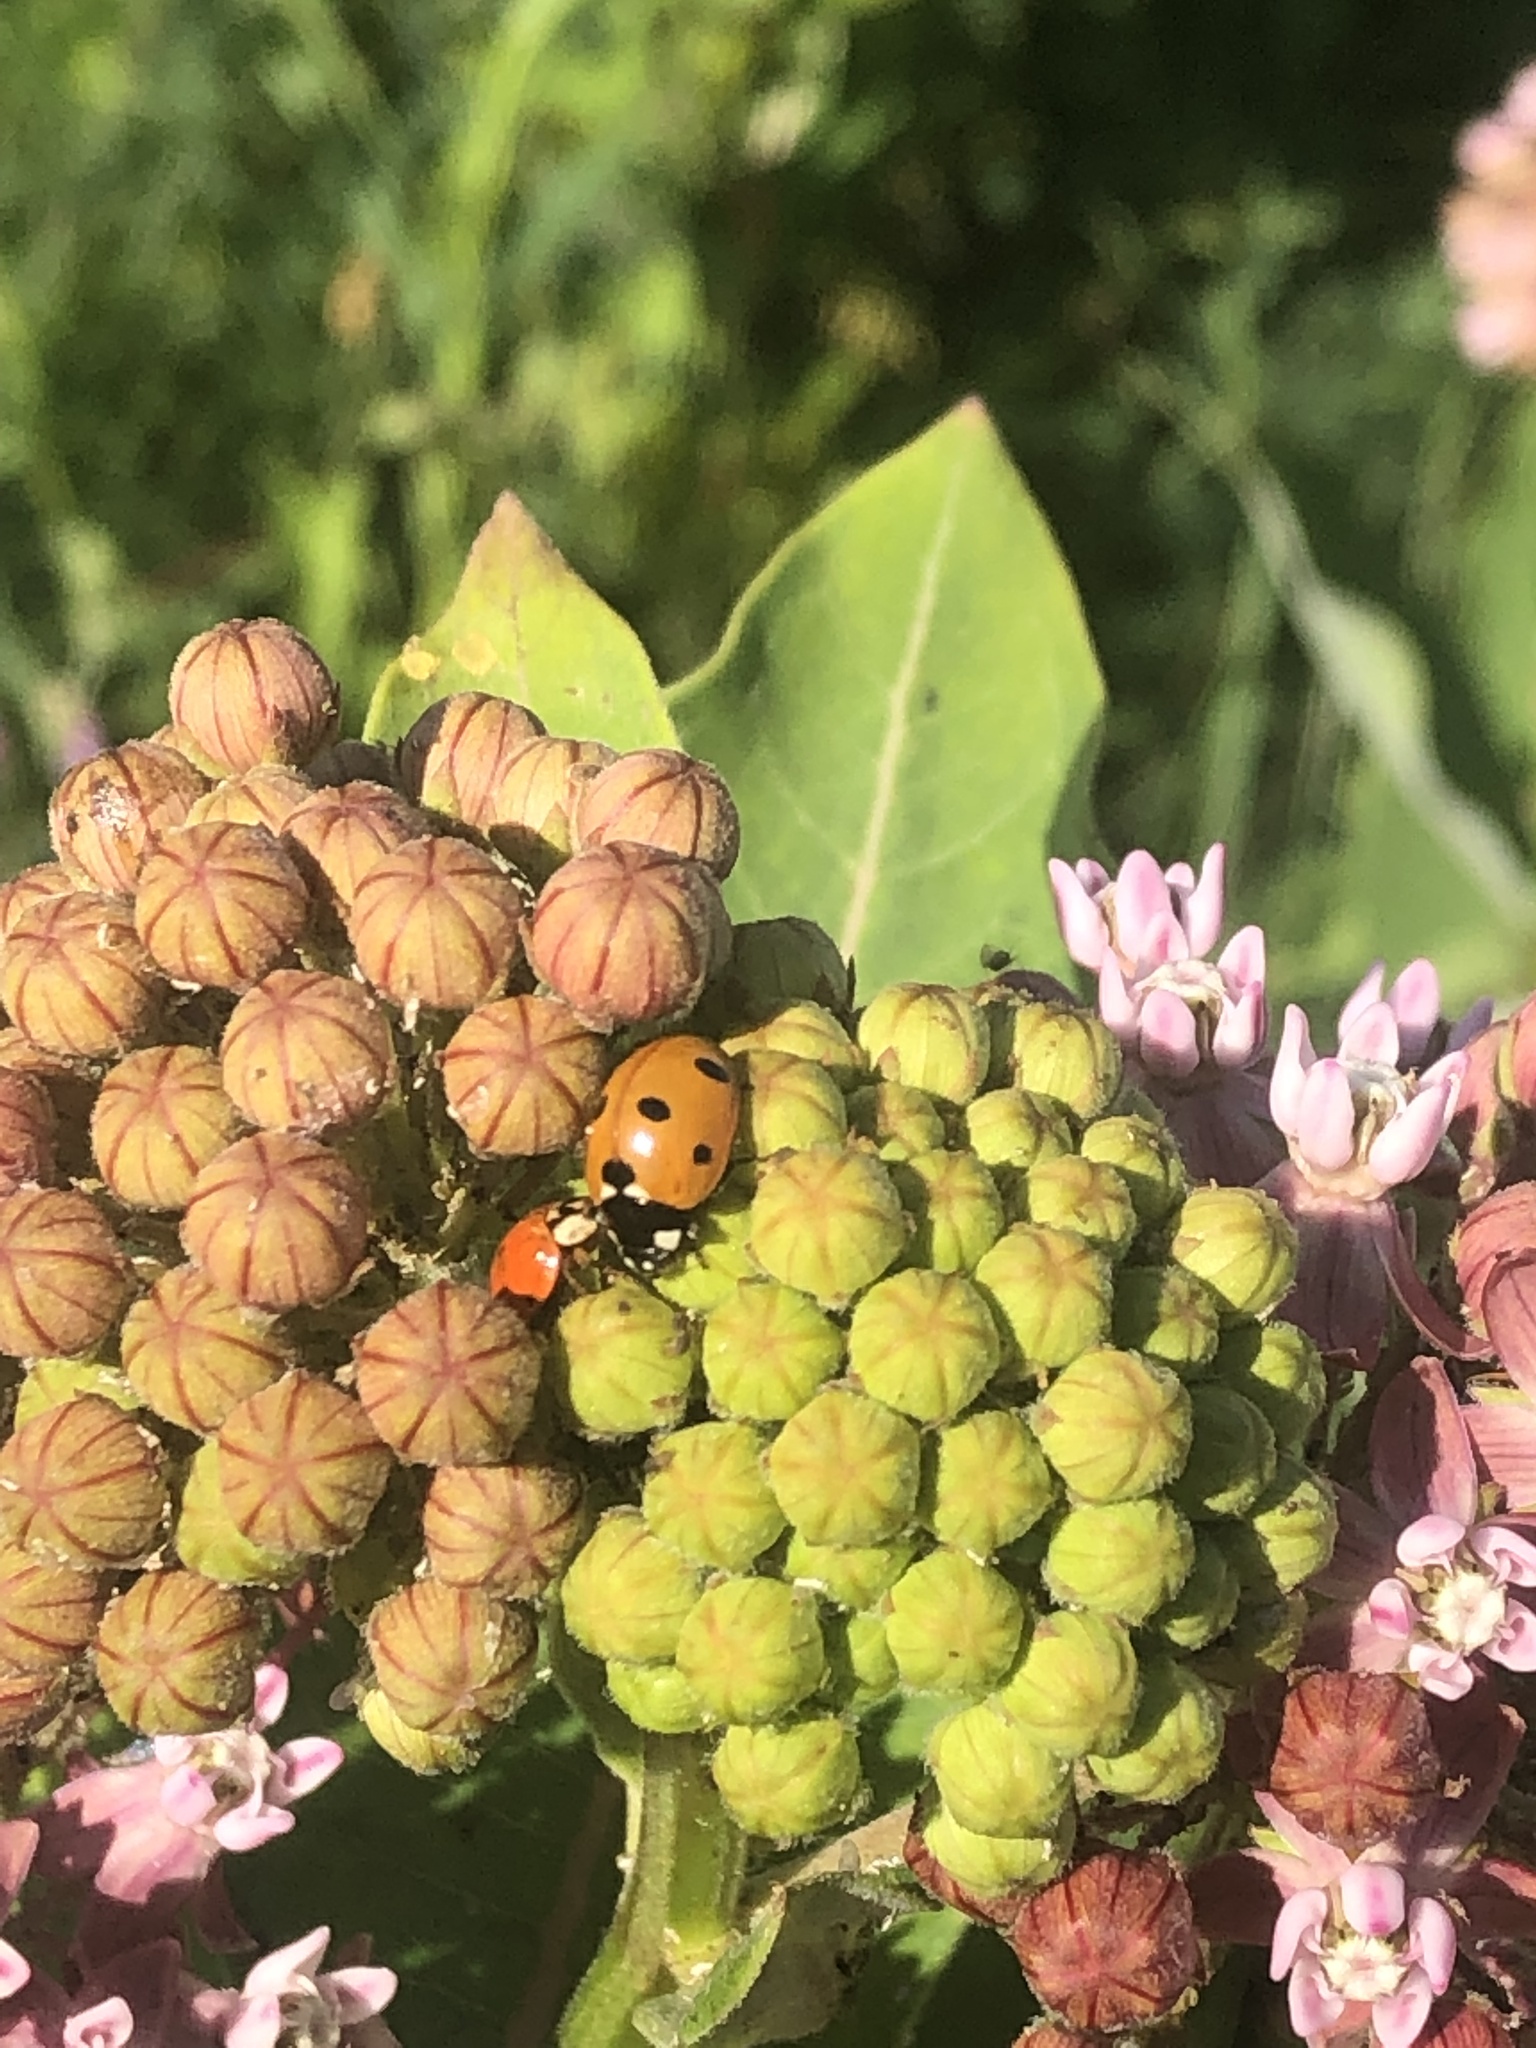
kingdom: Animalia
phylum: Arthropoda
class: Insecta
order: Coleoptera
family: Coccinellidae
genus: Coccinella
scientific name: Coccinella septempunctata
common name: Sevenspotted lady beetle
